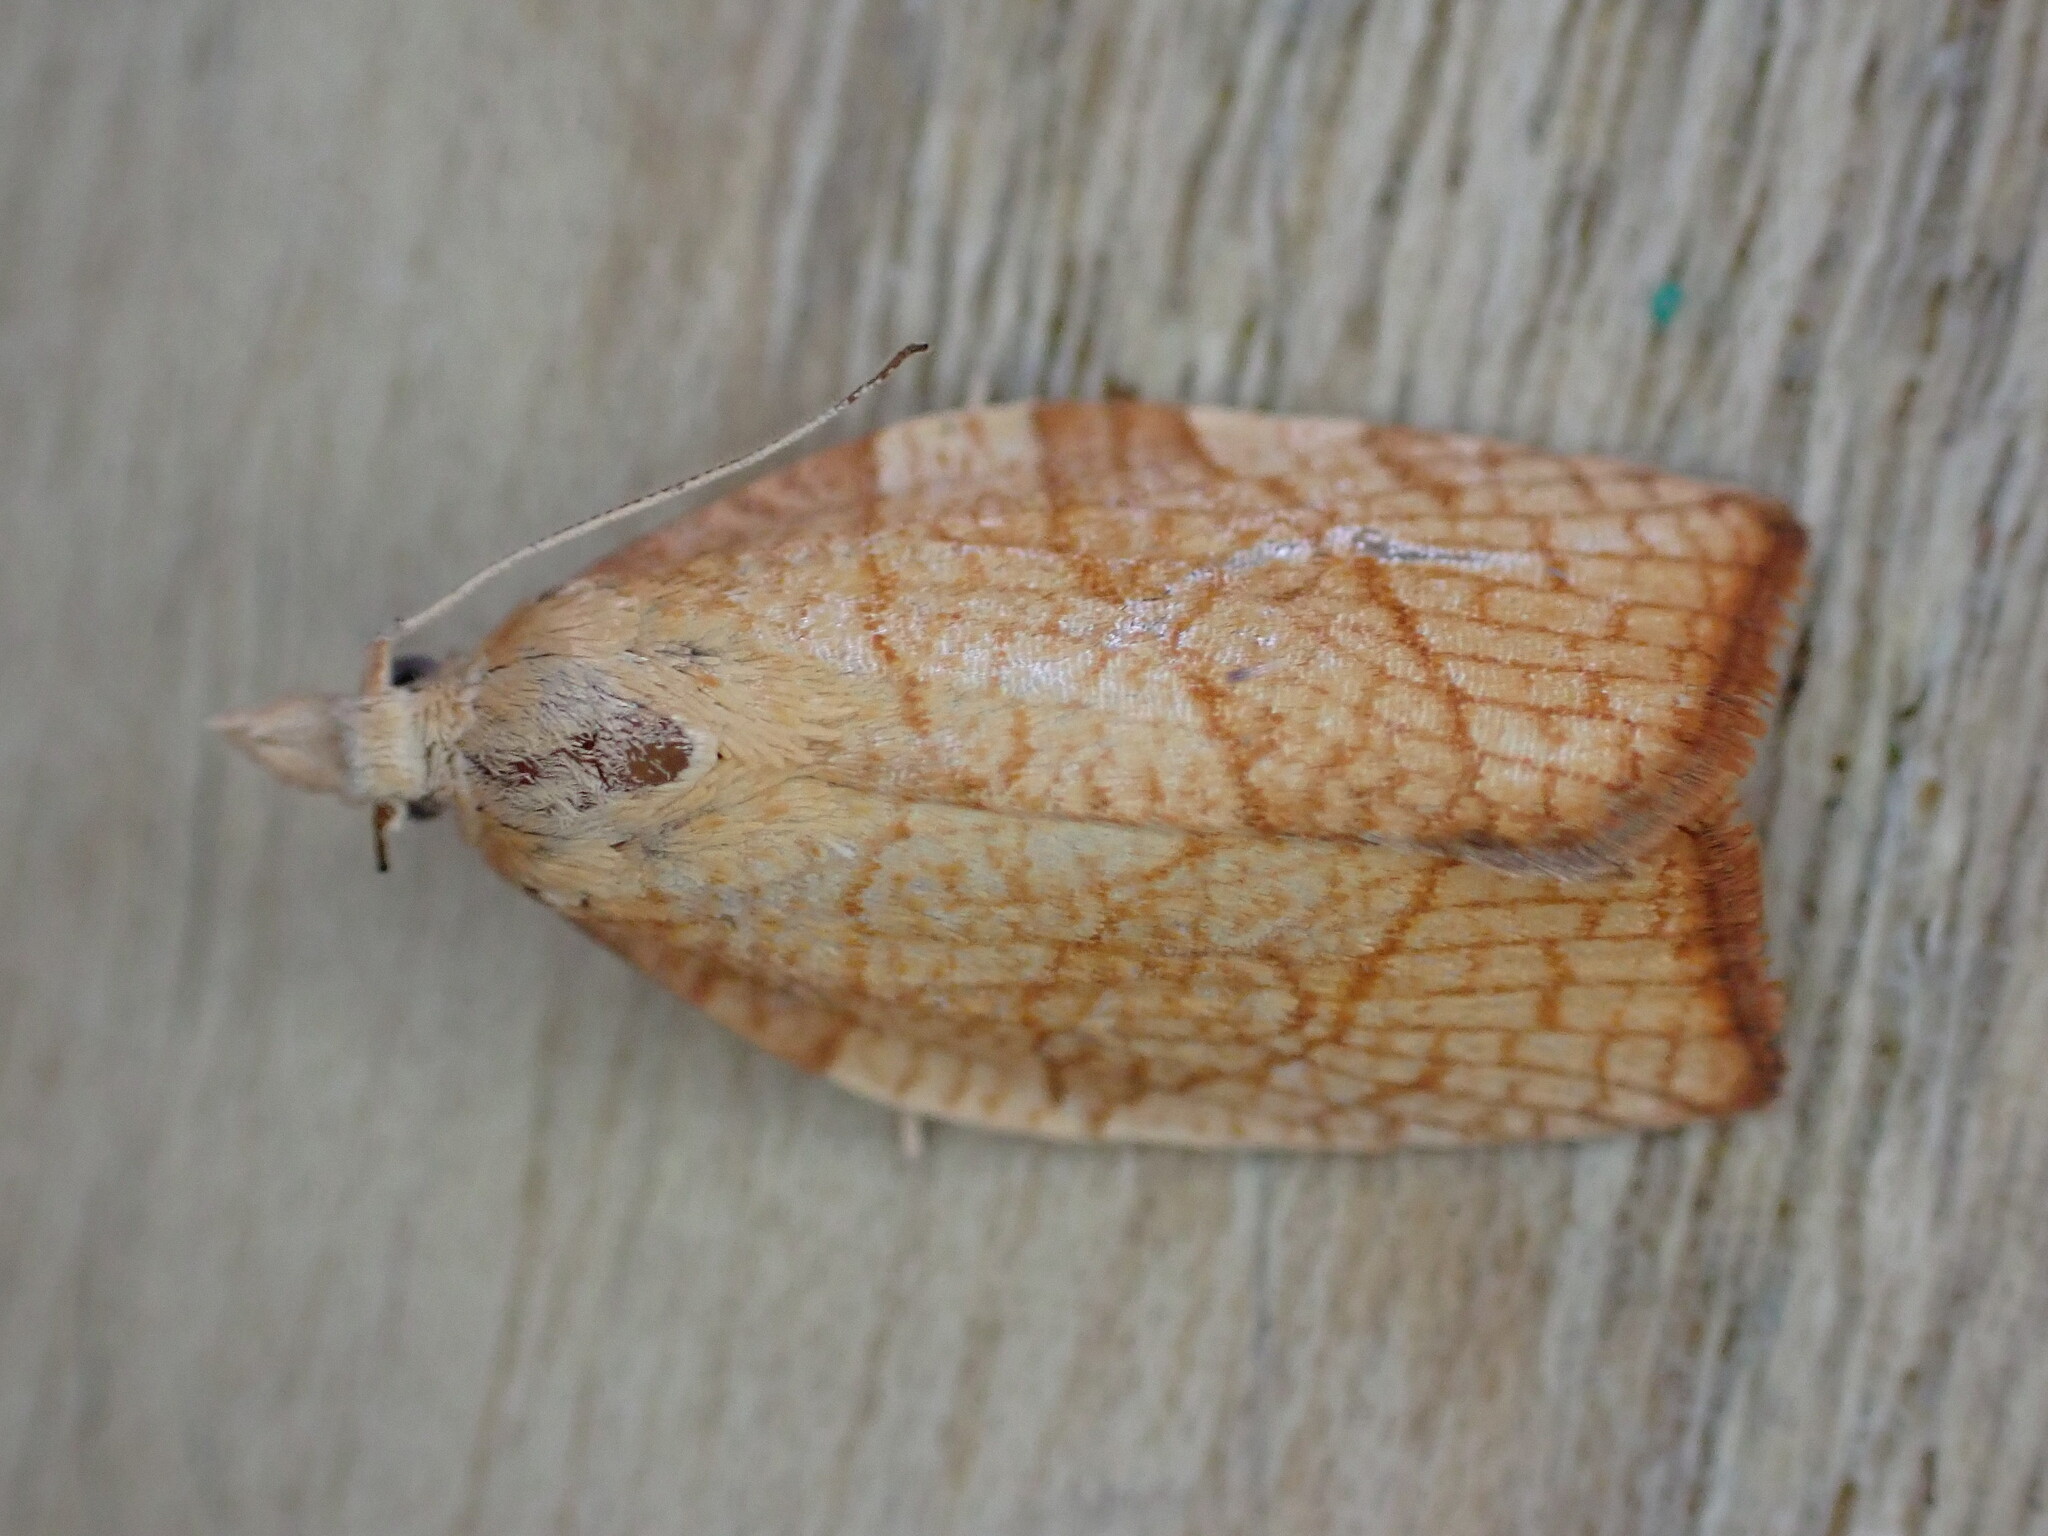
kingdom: Animalia
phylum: Arthropoda
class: Insecta
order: Lepidoptera
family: Tortricidae
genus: Pandemis
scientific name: Pandemis corylana
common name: Chequered fruit-tree tortrix
